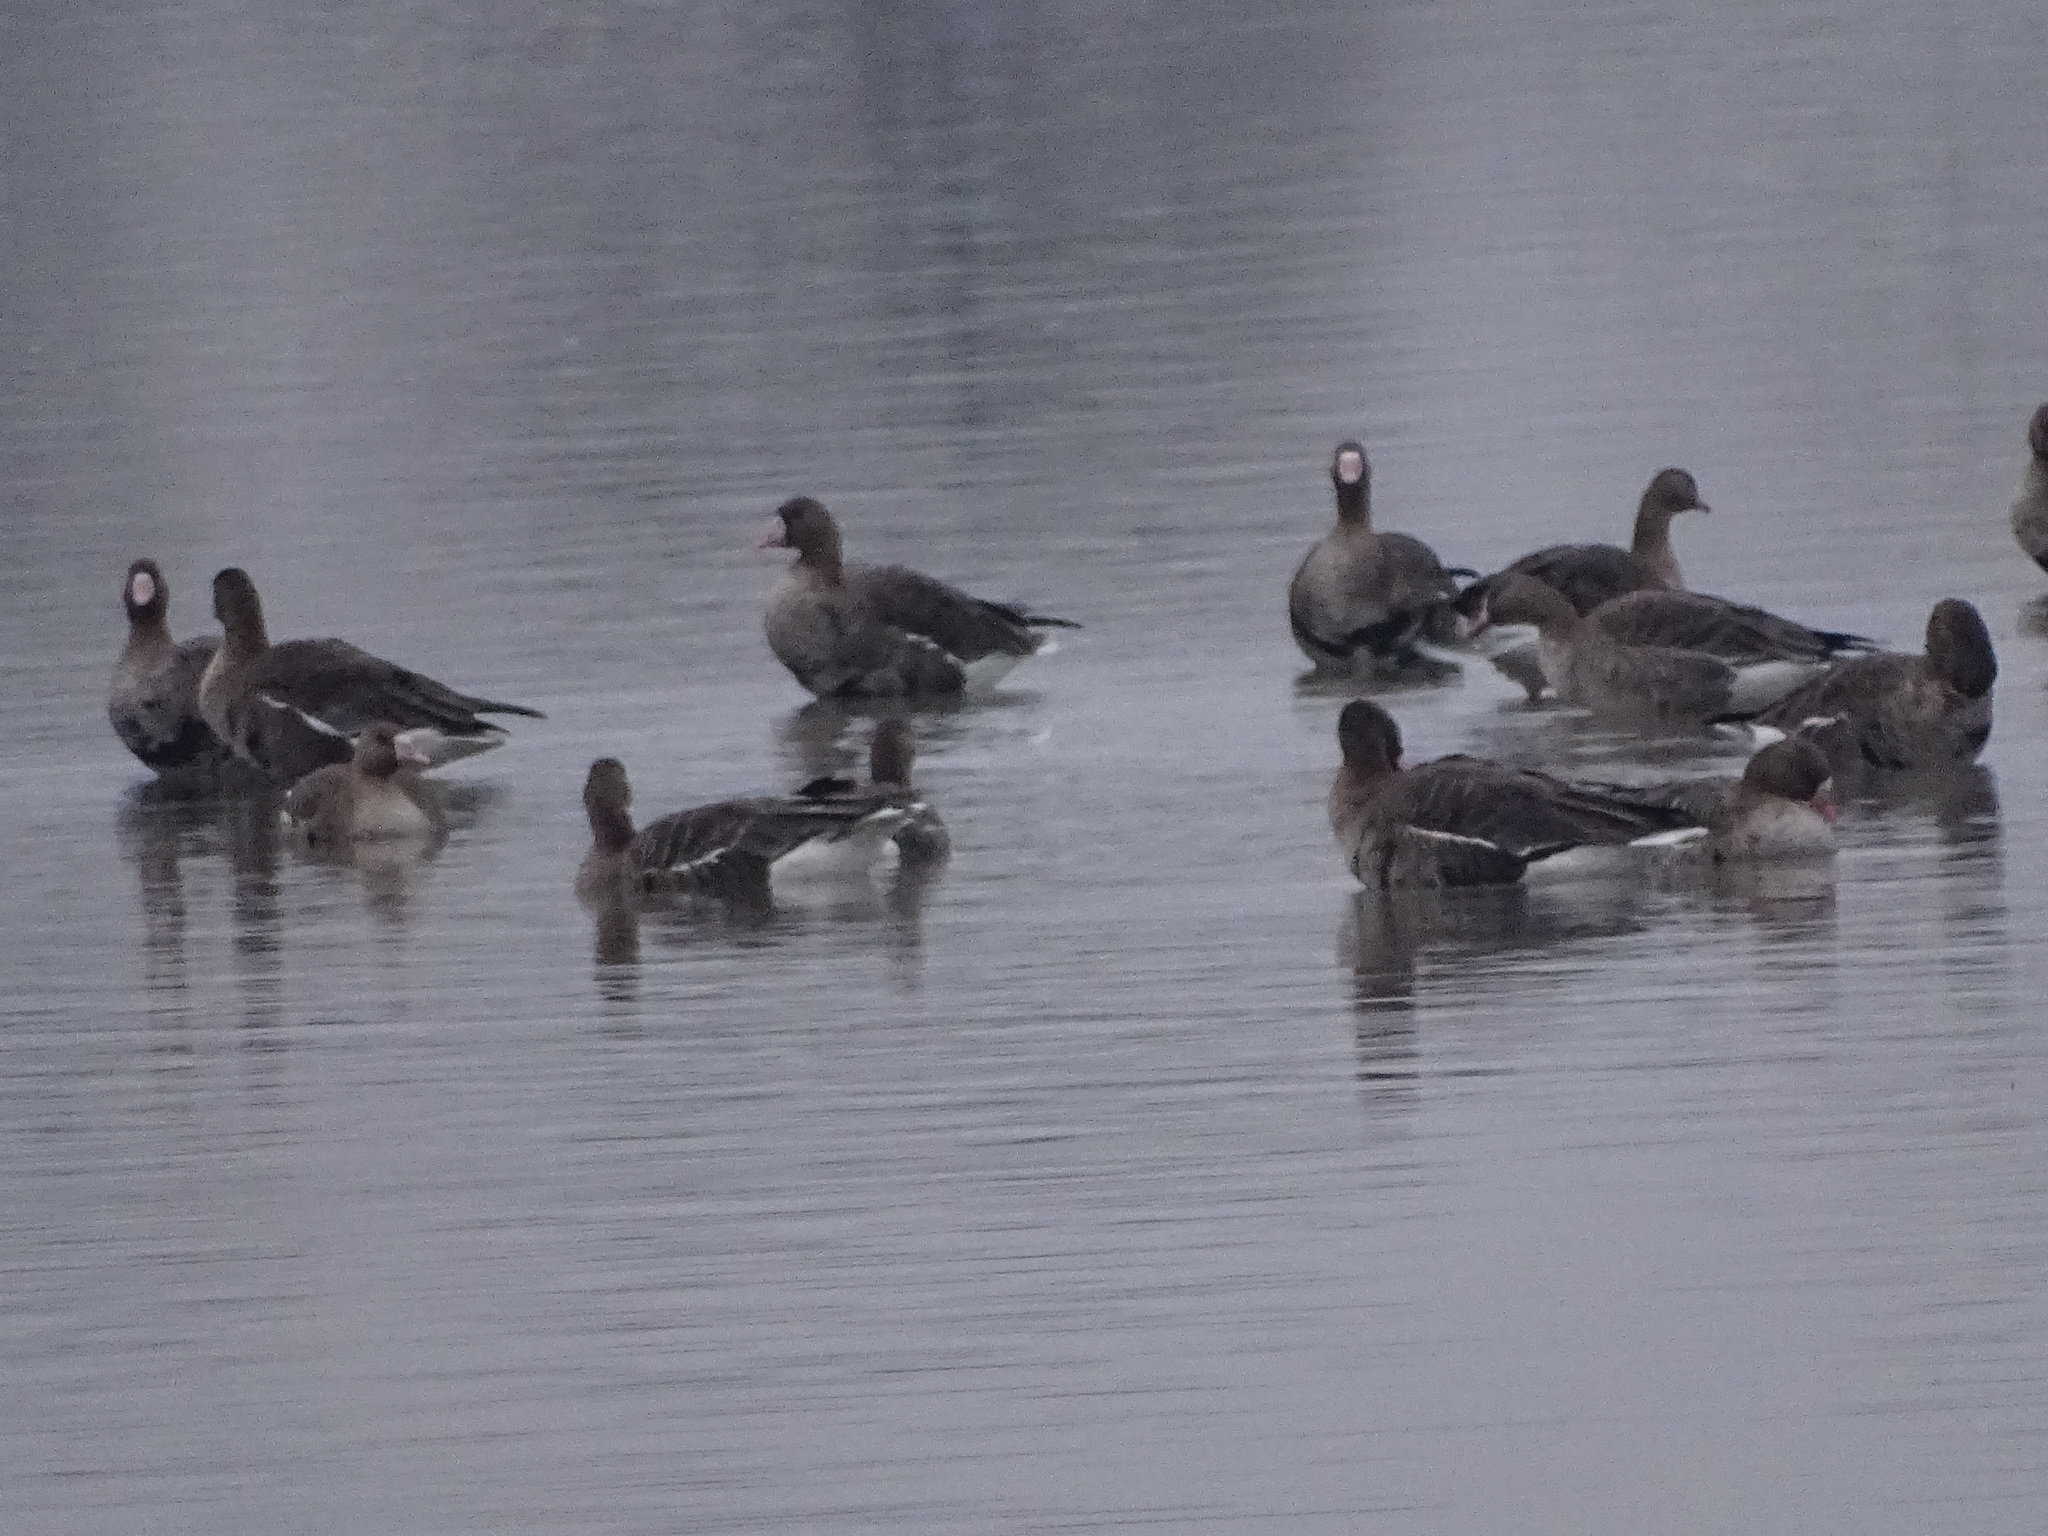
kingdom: Animalia
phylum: Chordata
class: Aves
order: Anseriformes
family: Anatidae
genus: Anser
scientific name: Anser albifrons
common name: Greater white-fronted goose
